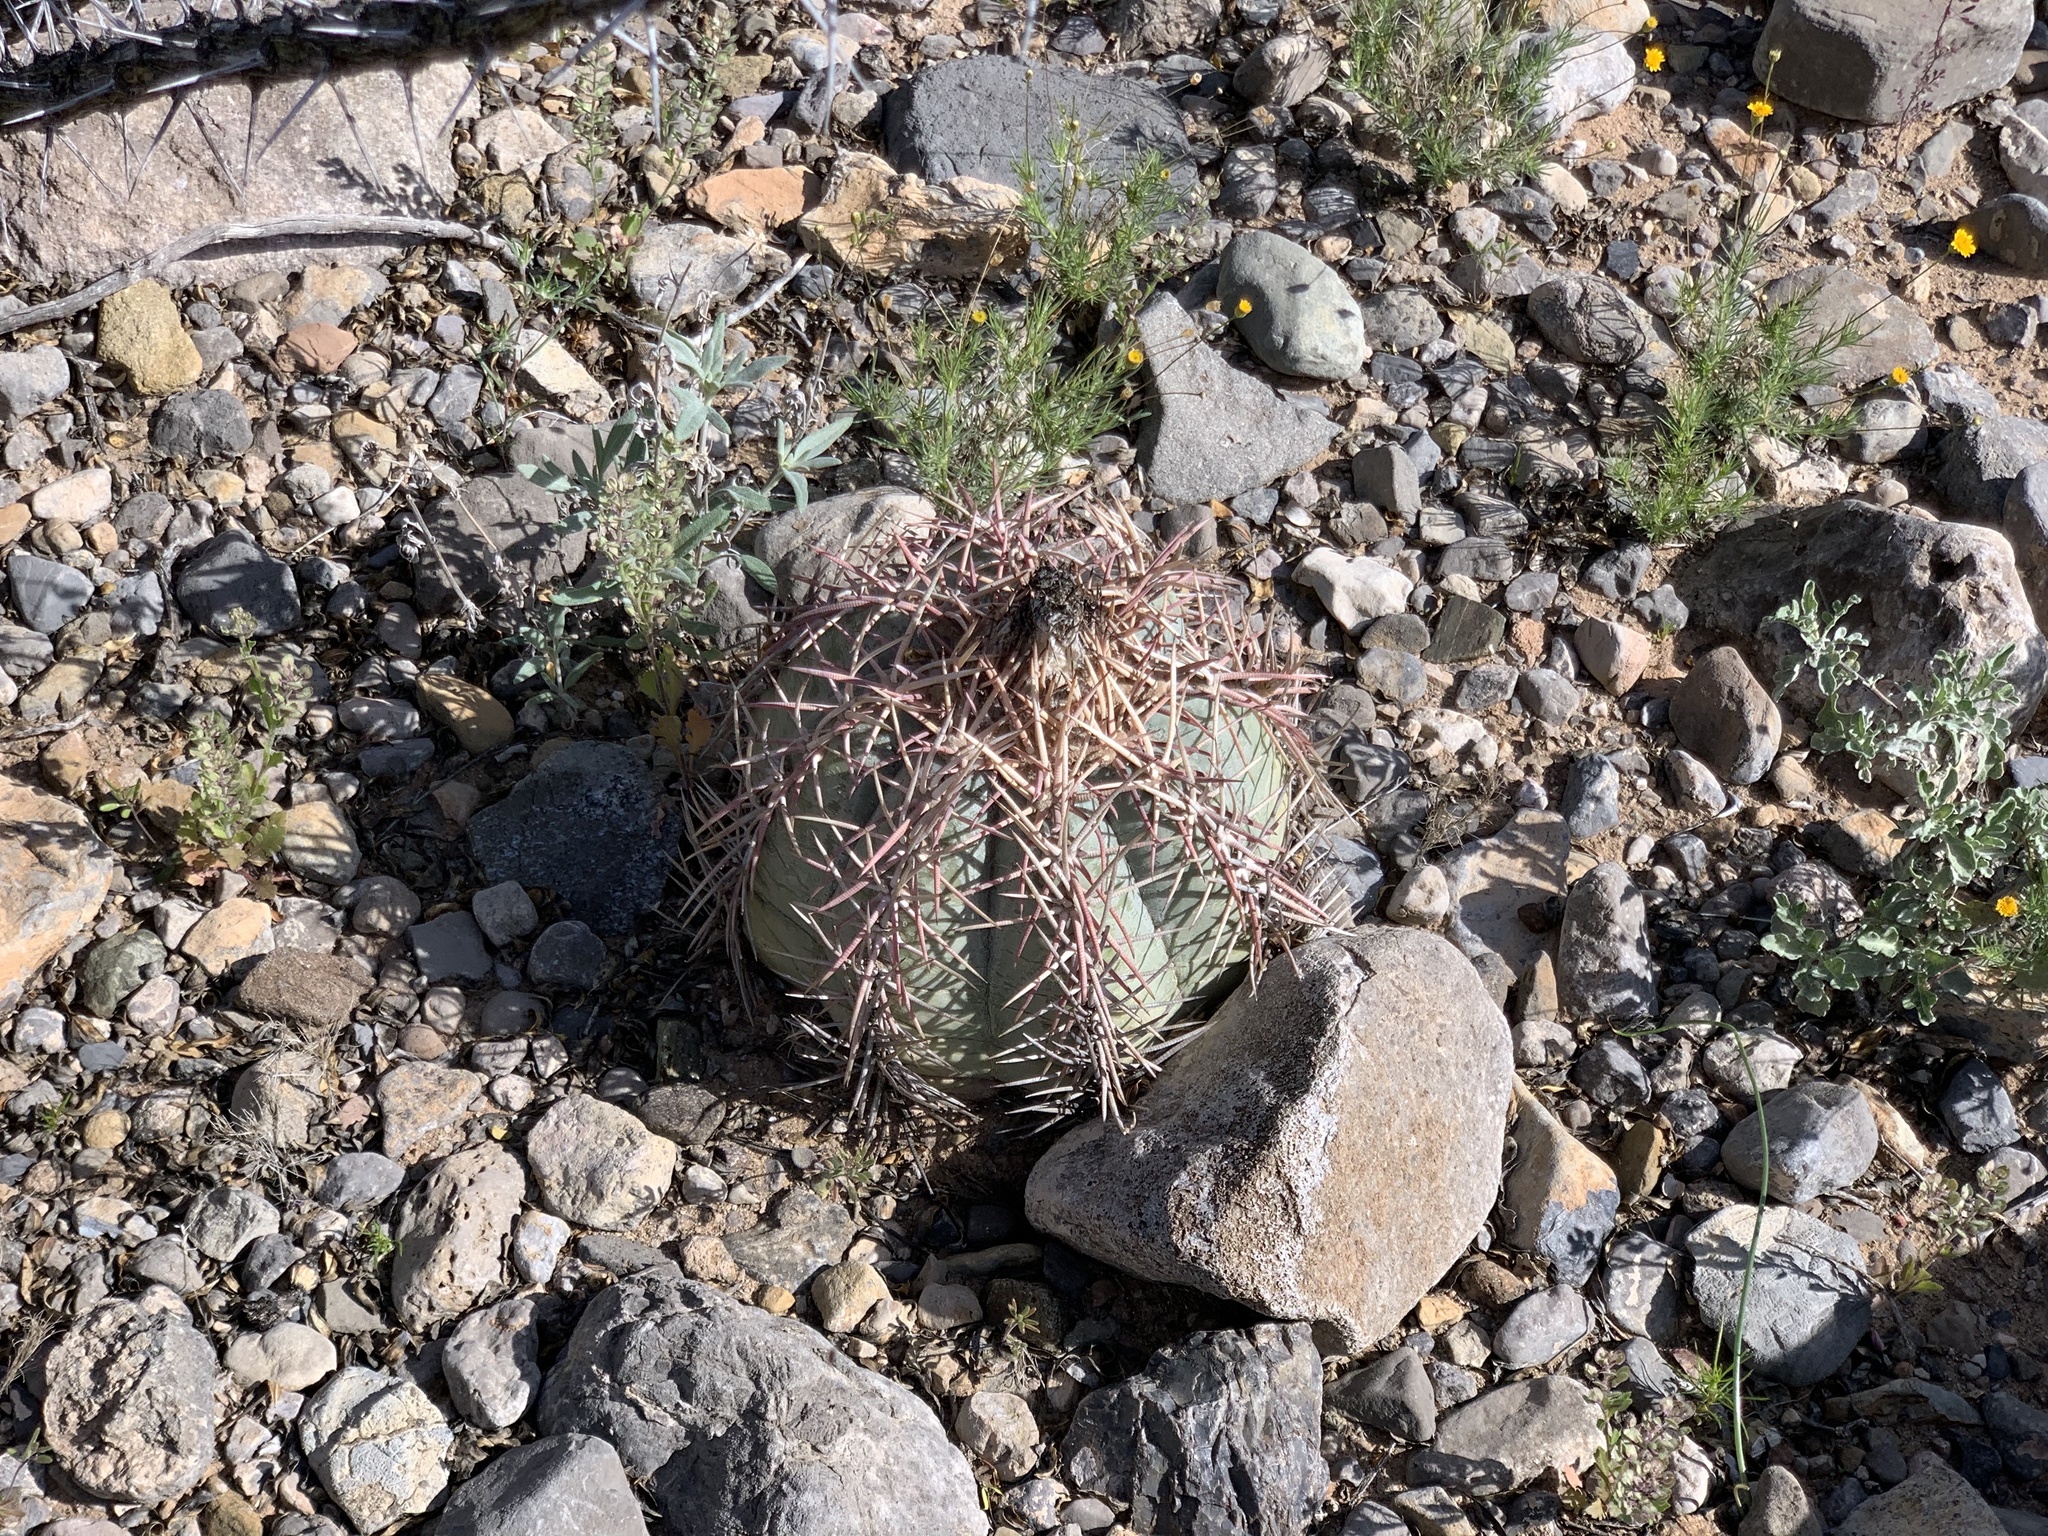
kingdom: Plantae
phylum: Tracheophyta
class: Magnoliopsida
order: Caryophyllales
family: Cactaceae
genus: Echinocactus
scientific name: Echinocactus horizonthalonius
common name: Devilshead
